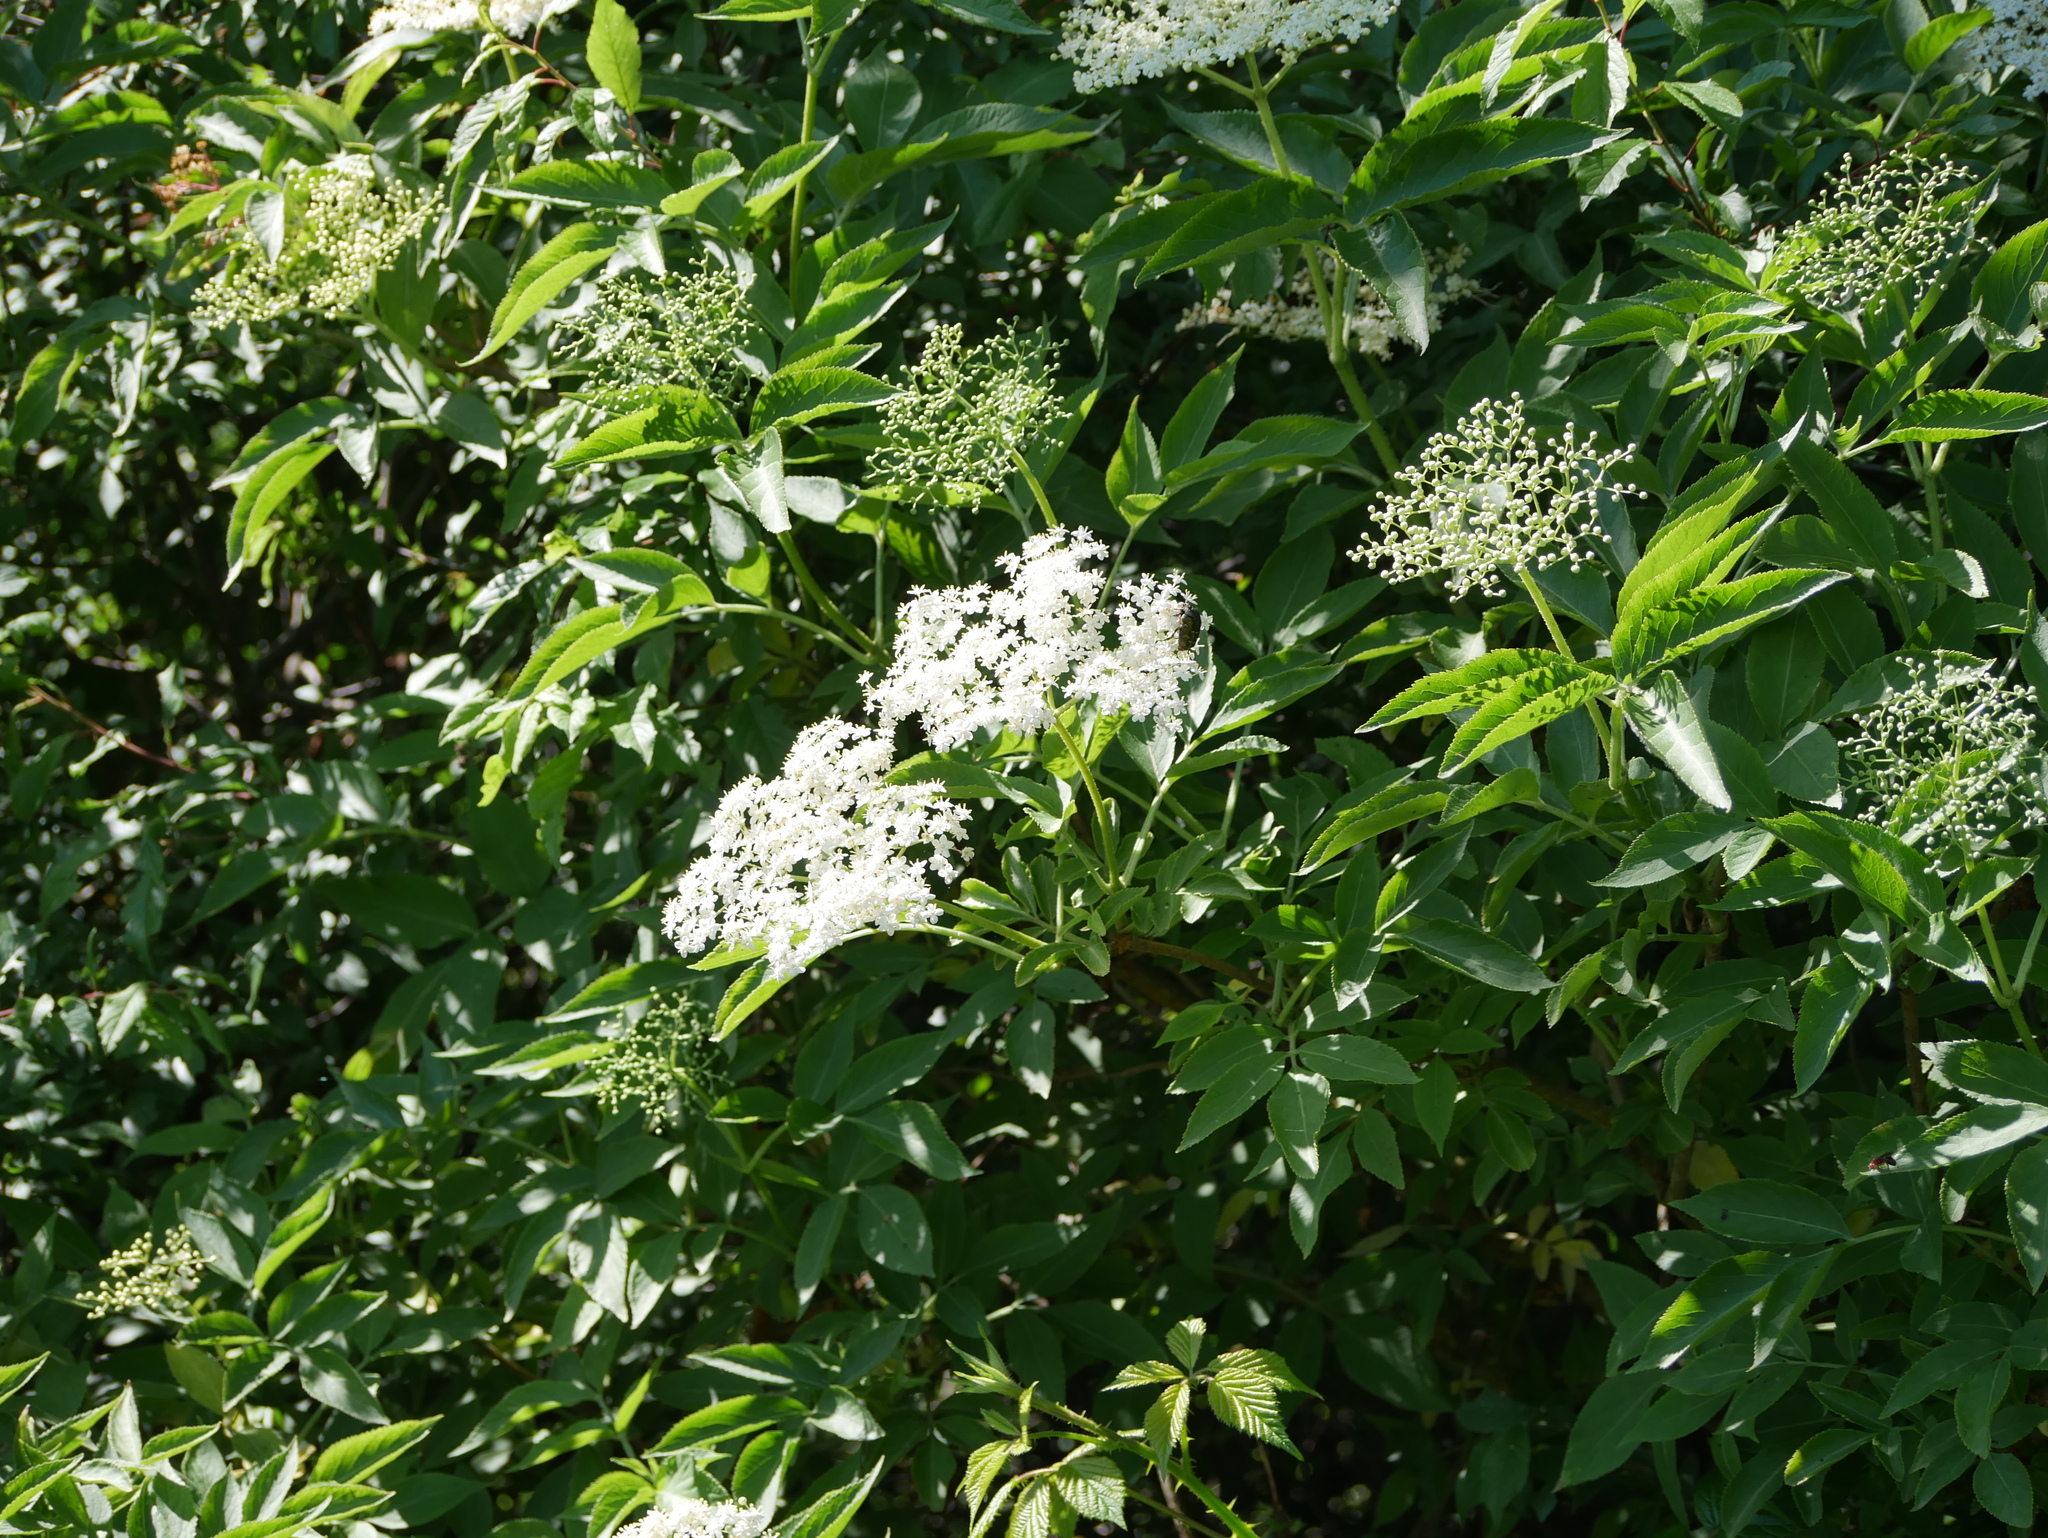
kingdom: Plantae
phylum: Tracheophyta
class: Magnoliopsida
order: Dipsacales
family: Viburnaceae
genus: Sambucus
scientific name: Sambucus nigra
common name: Elder
